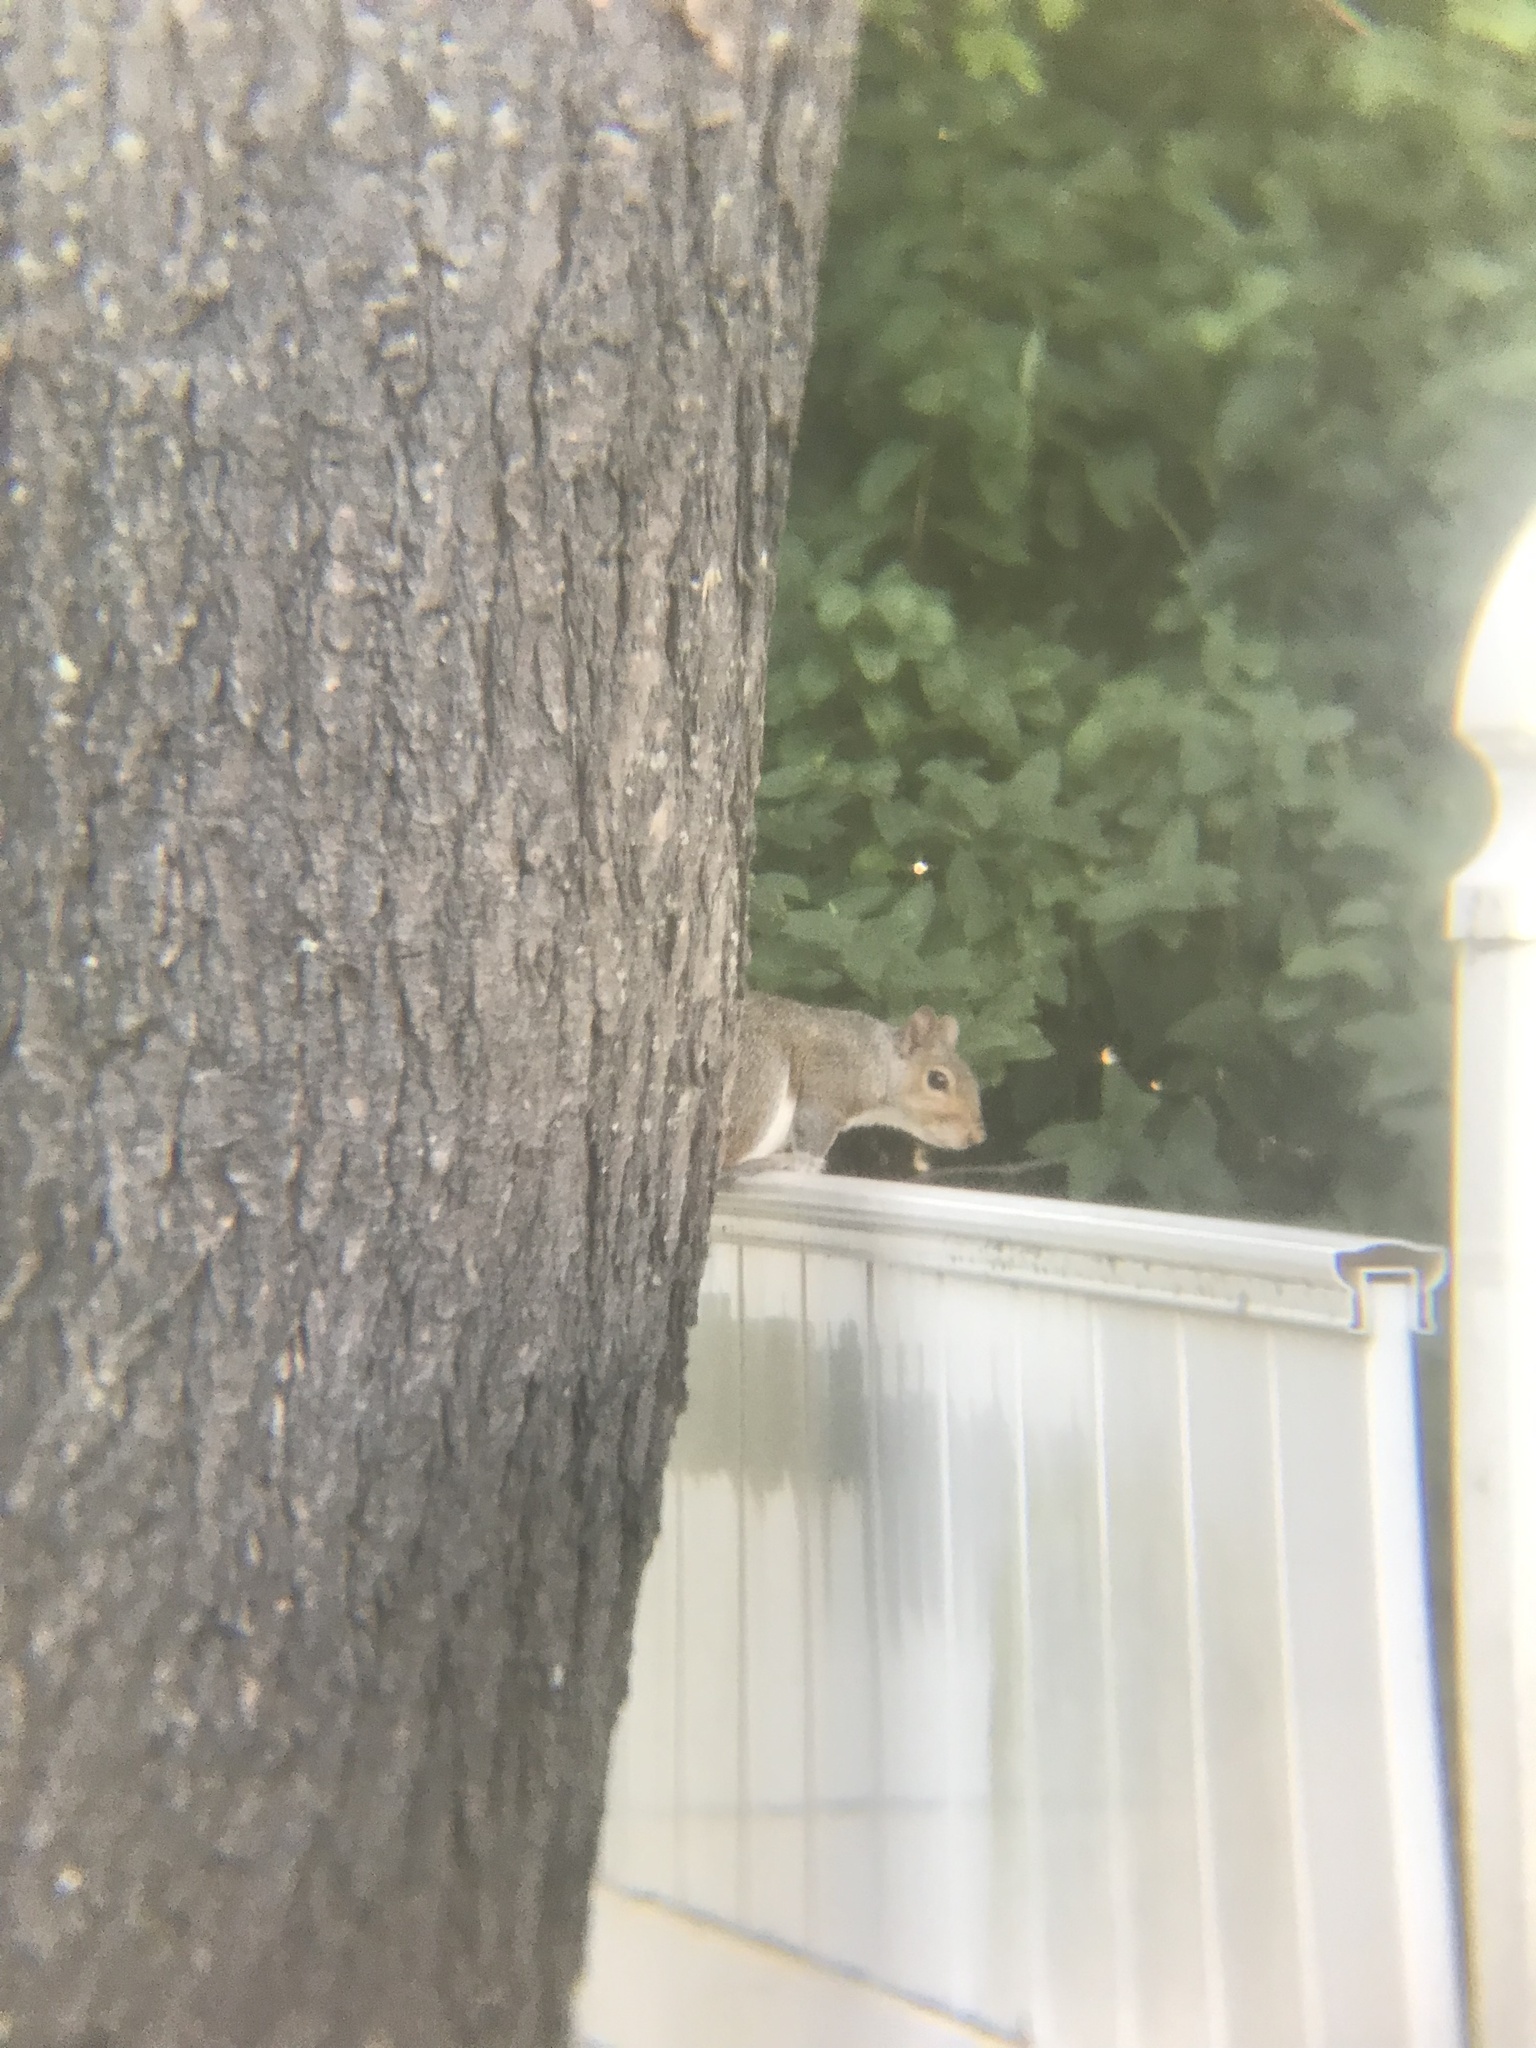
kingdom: Animalia
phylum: Chordata
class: Mammalia
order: Rodentia
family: Sciuridae
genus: Sciurus
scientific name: Sciurus carolinensis
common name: Eastern gray squirrel
